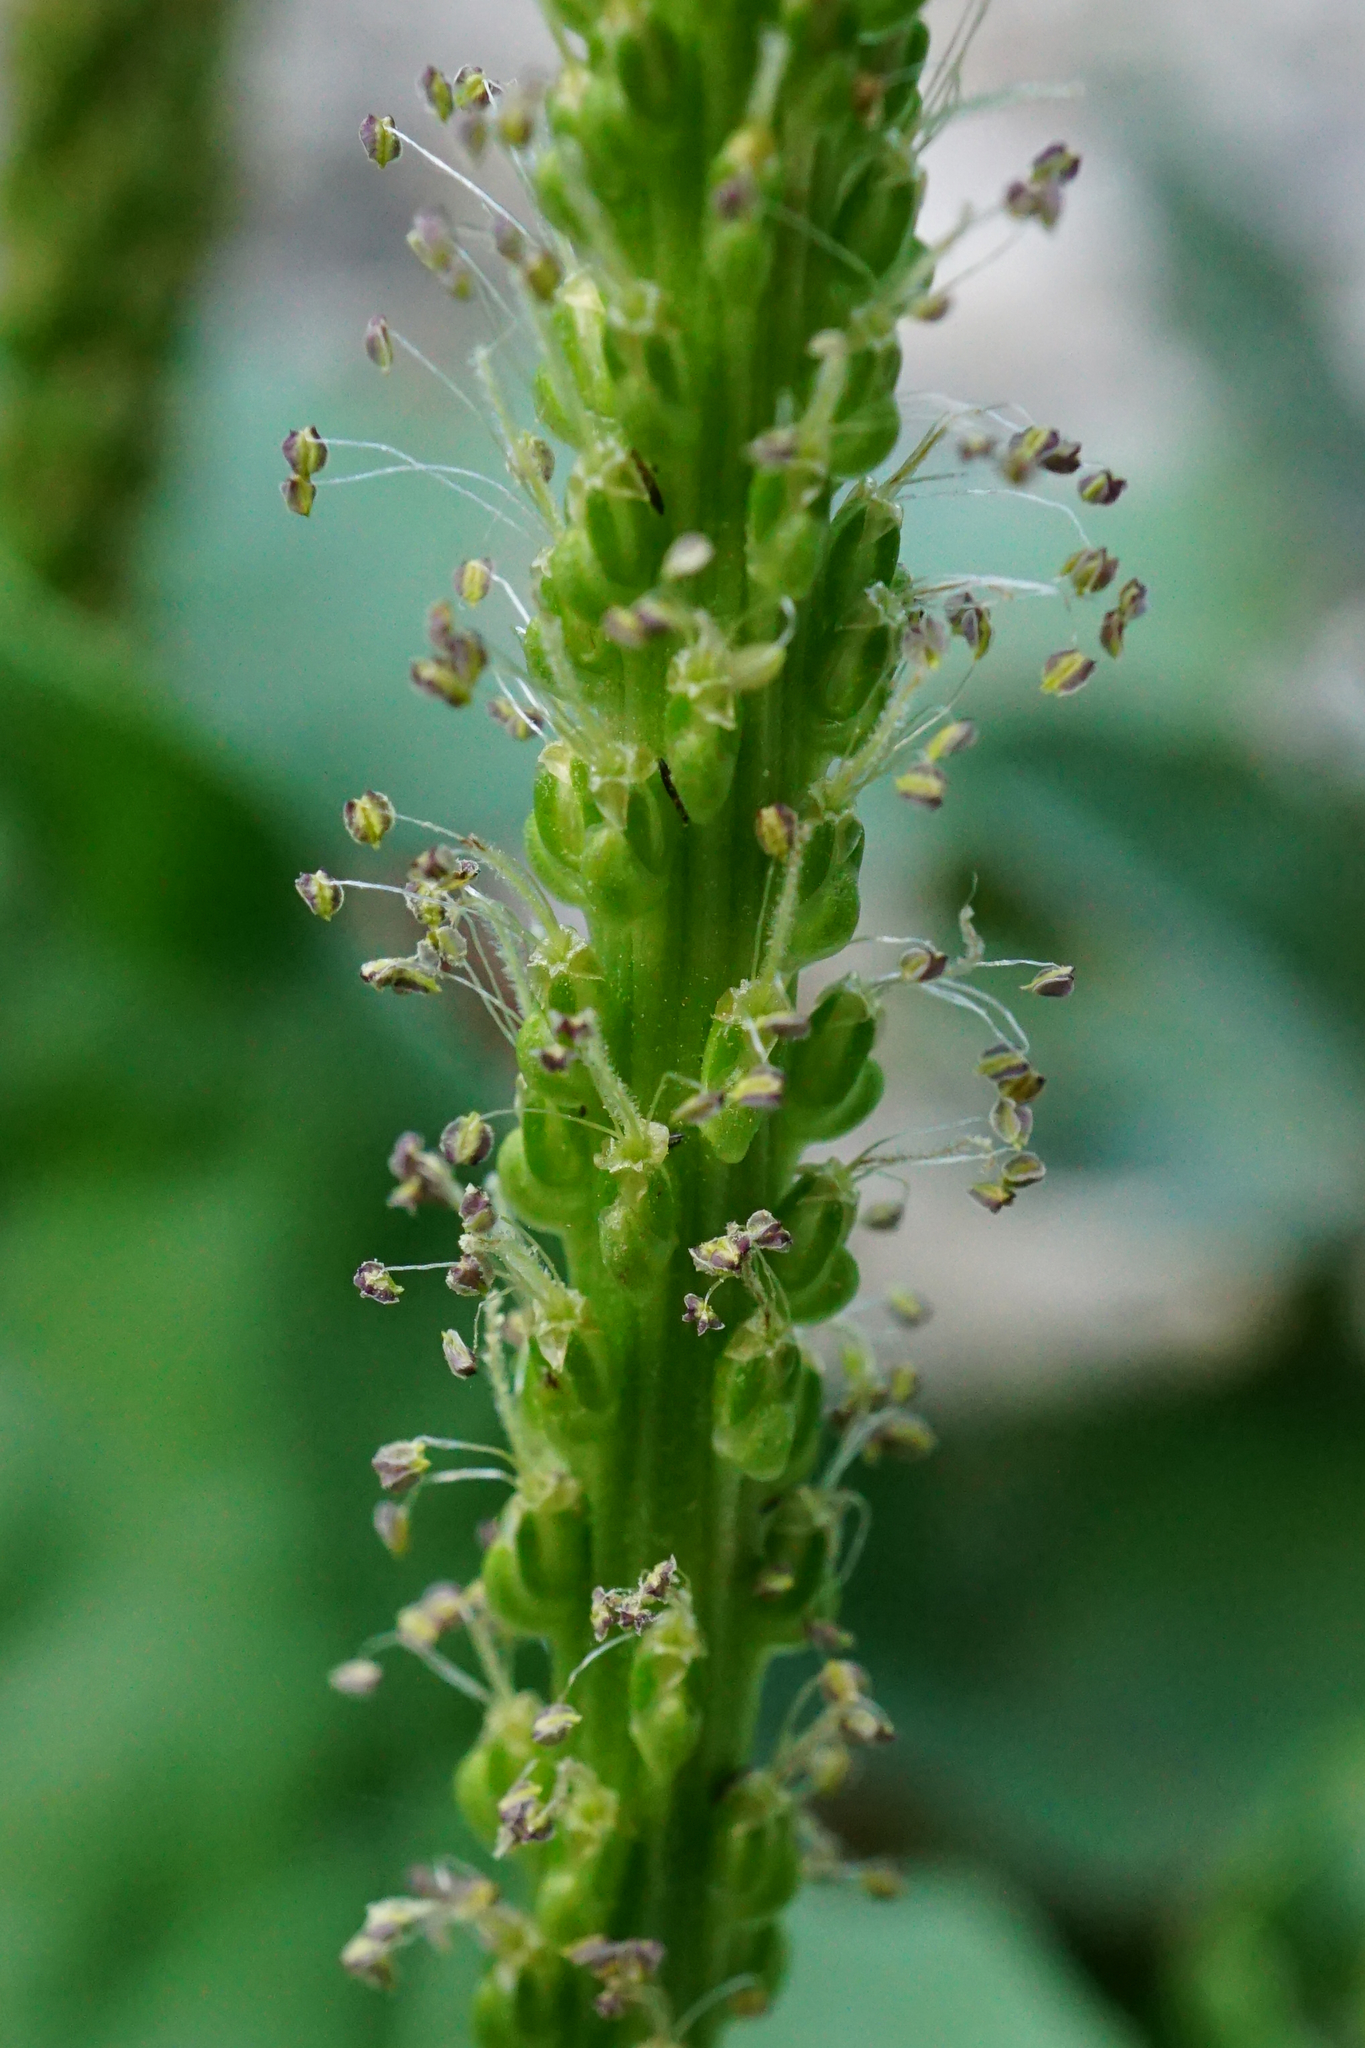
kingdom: Plantae
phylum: Tracheophyta
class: Magnoliopsida
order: Lamiales
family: Plantaginaceae
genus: Plantago
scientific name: Plantago major
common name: Common plantain
